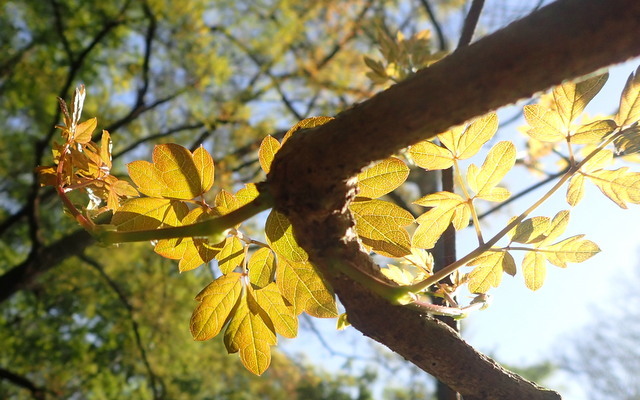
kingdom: Plantae
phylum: Tracheophyta
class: Magnoliopsida
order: Vitales
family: Vitaceae
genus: Nekemias
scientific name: Nekemias arborea
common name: Peppervine
